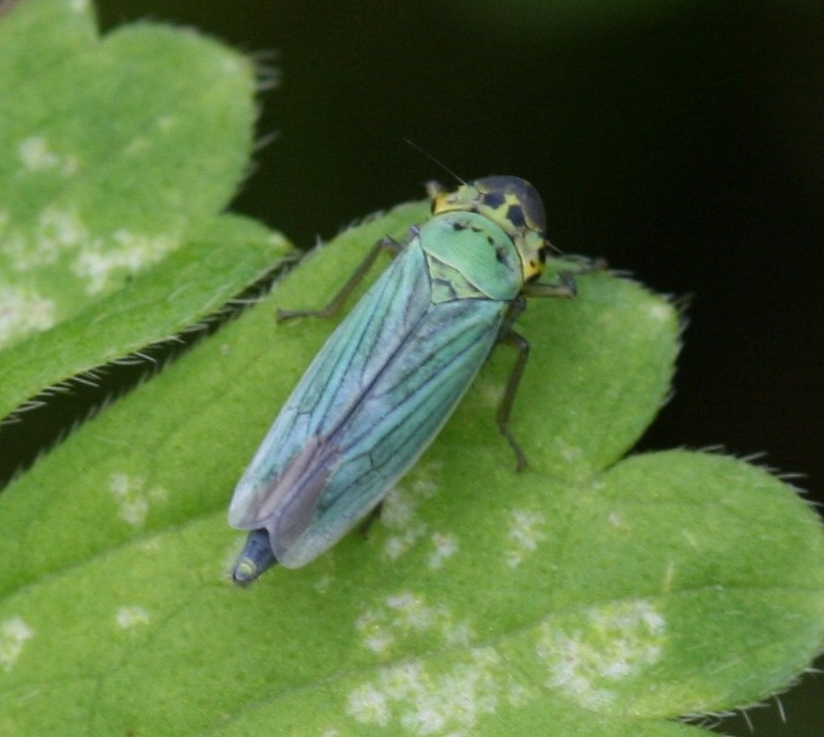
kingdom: Animalia
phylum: Arthropoda
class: Insecta
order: Hemiptera
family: Cicadellidae
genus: Cicadella
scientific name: Cicadella viridis
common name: Leafhopper
